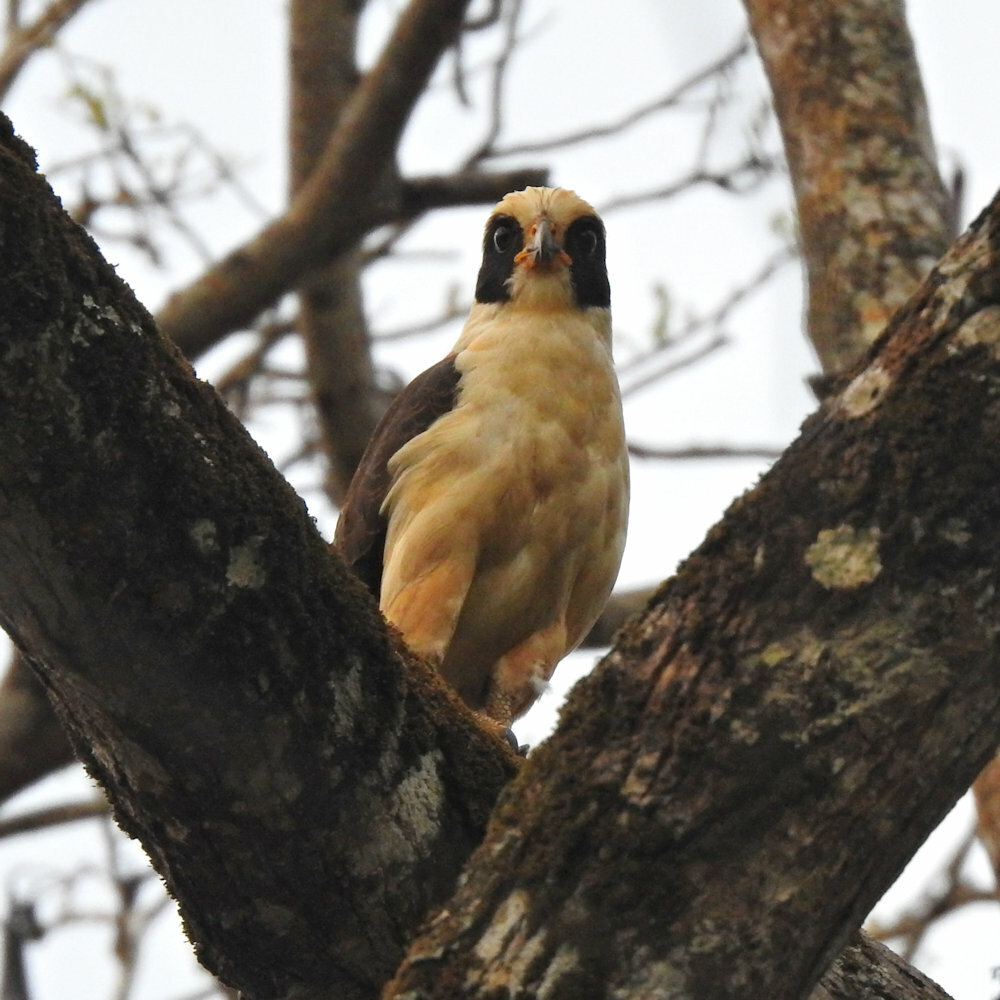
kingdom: Animalia
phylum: Chordata
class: Aves
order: Falconiformes
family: Falconidae
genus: Herpetotheres
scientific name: Herpetotheres cachinnans
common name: Laughing falcon
